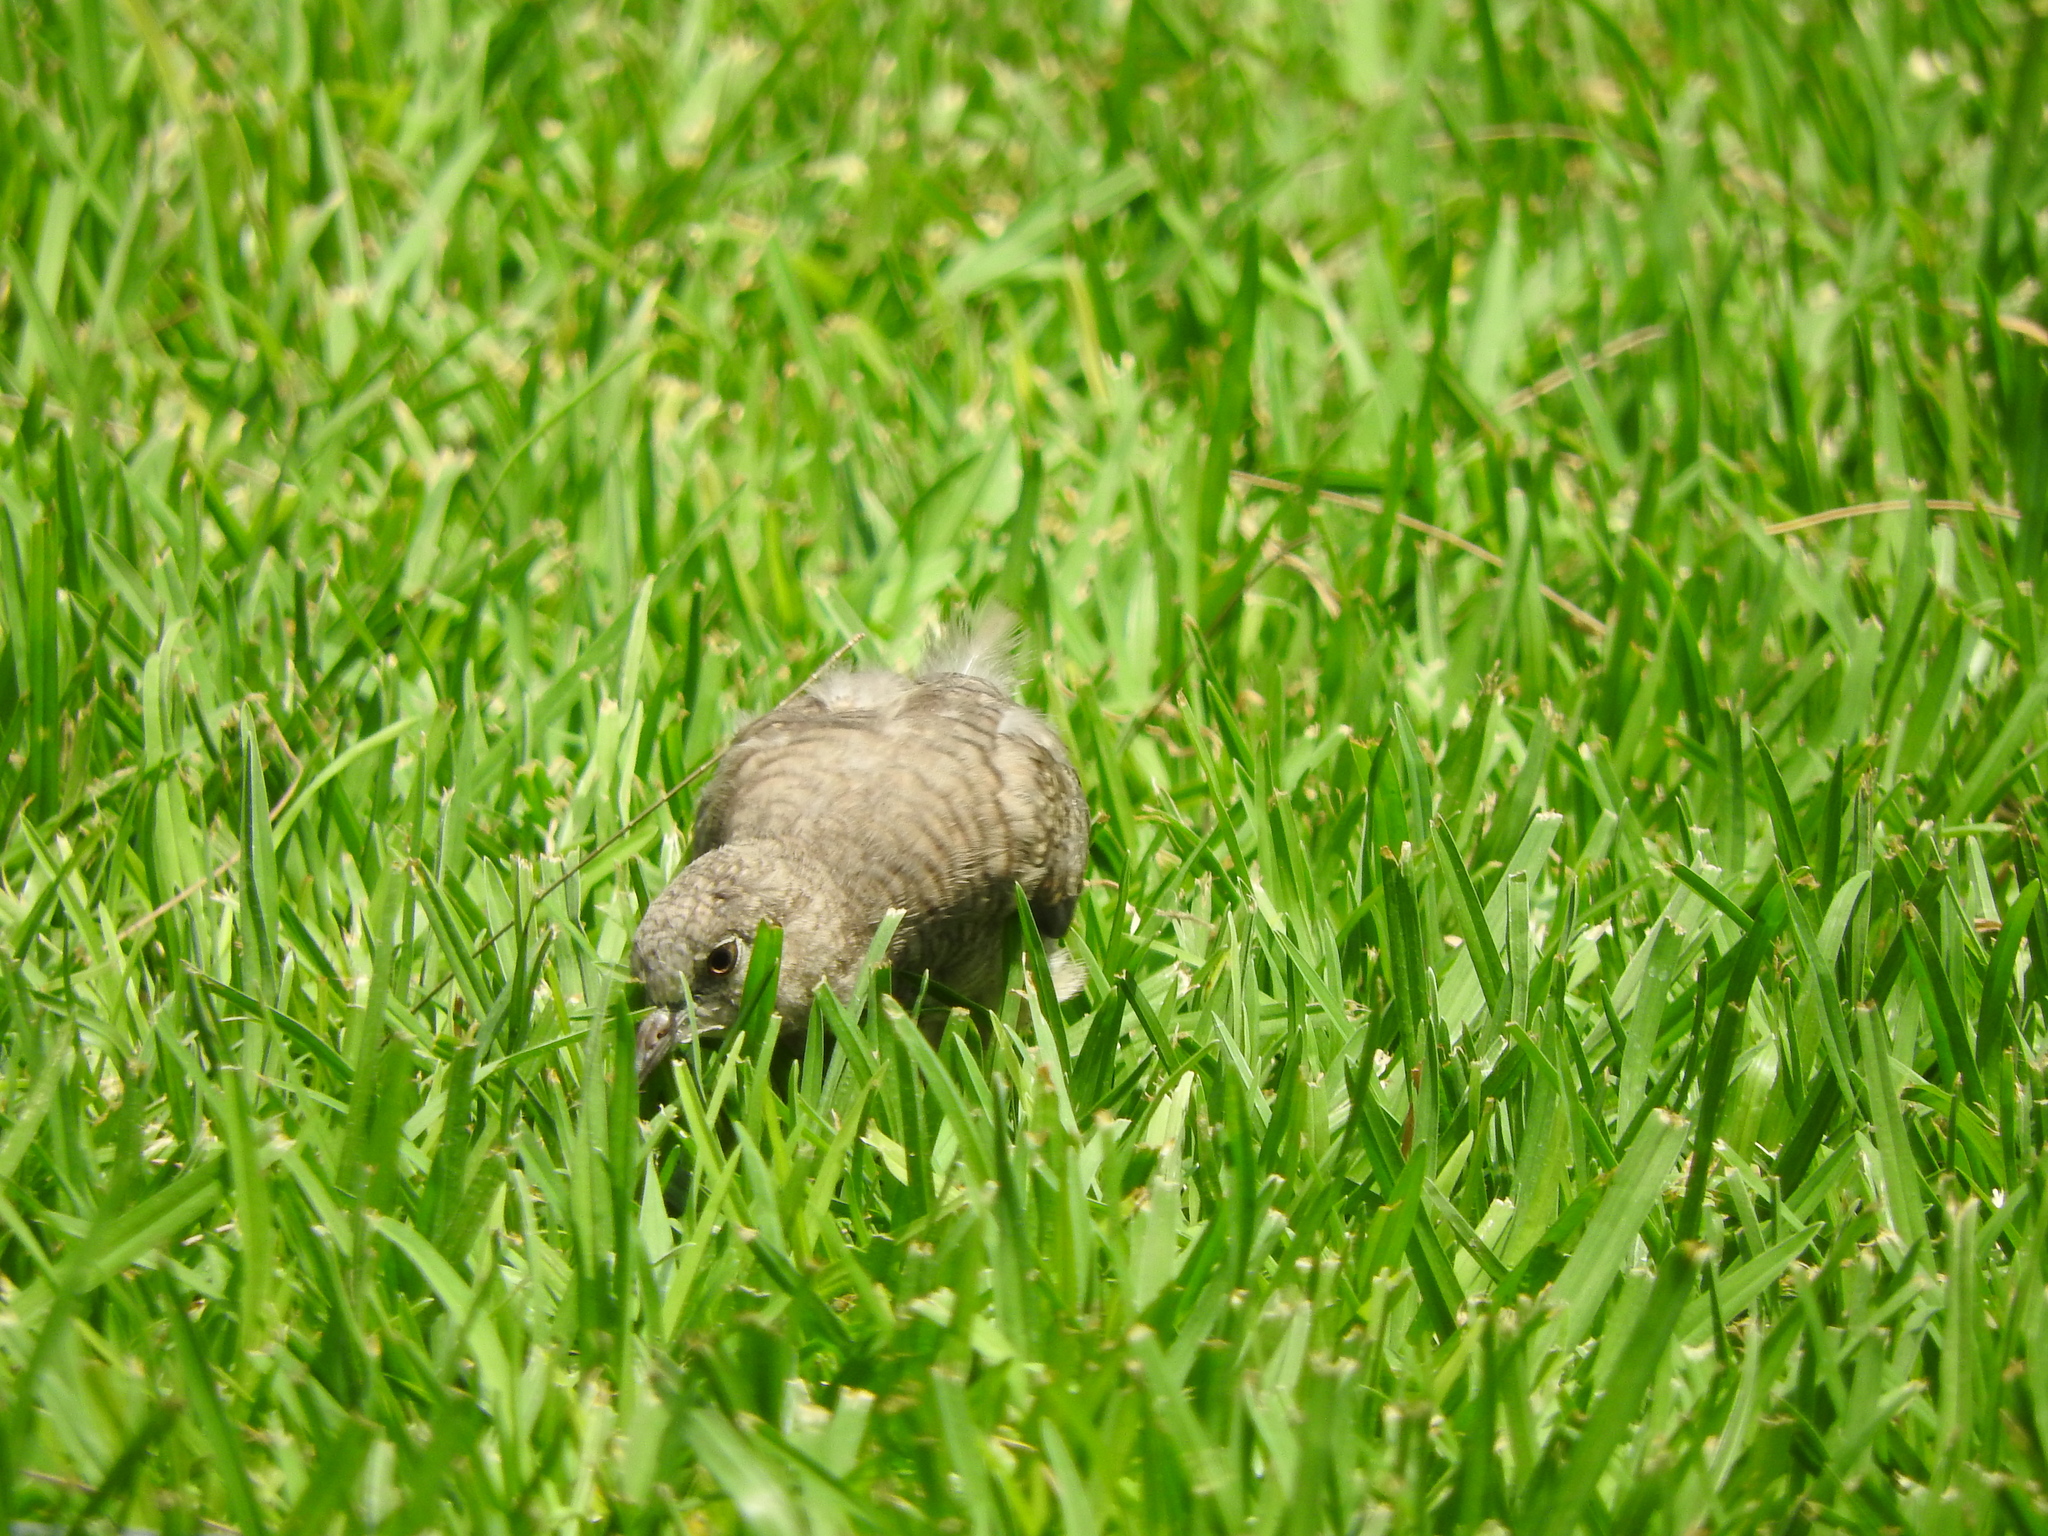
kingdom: Animalia
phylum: Chordata
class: Aves
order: Columbiformes
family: Columbidae
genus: Columbina
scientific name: Columbina inca
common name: Inca dove
